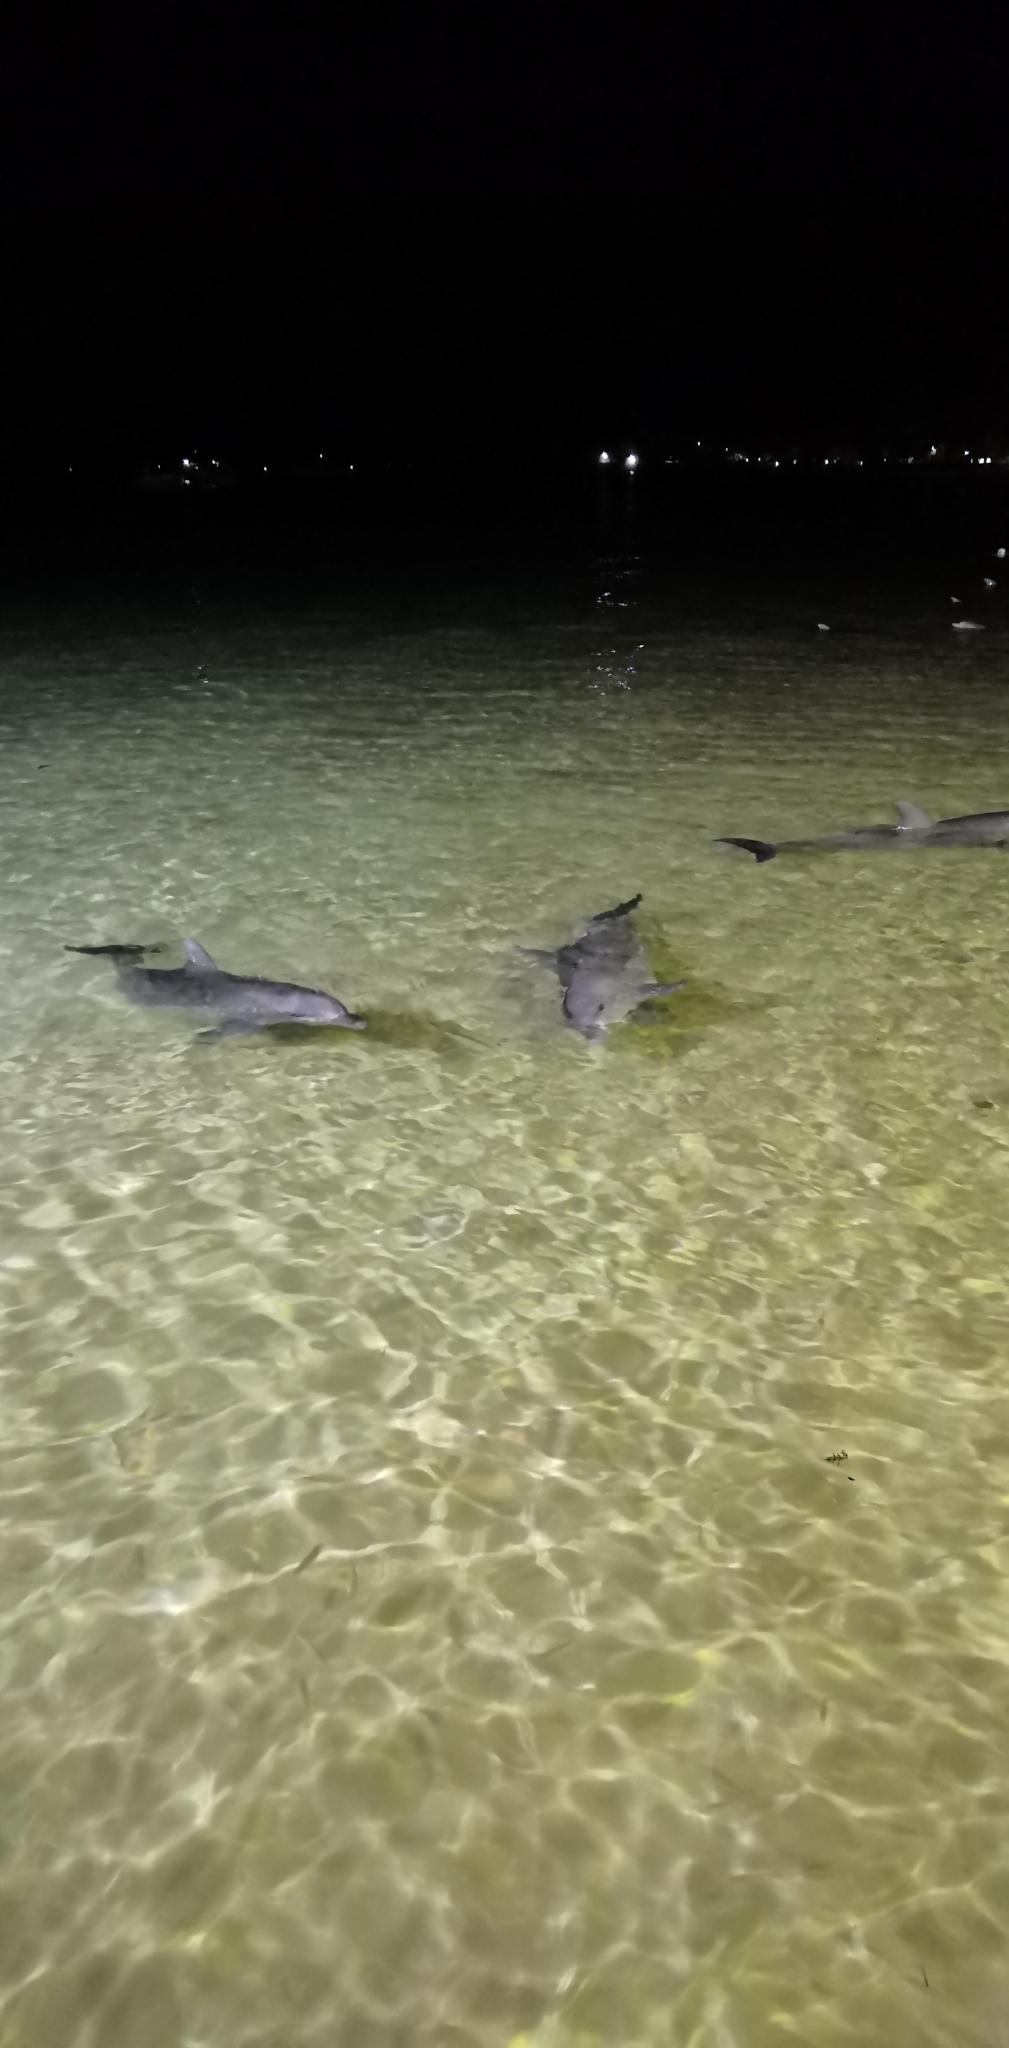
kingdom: Animalia
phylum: Chordata
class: Mammalia
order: Cetacea
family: Delphinidae
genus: Tursiops
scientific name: Tursiops aduncus
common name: Indo-pacific bottlenose dolphin
